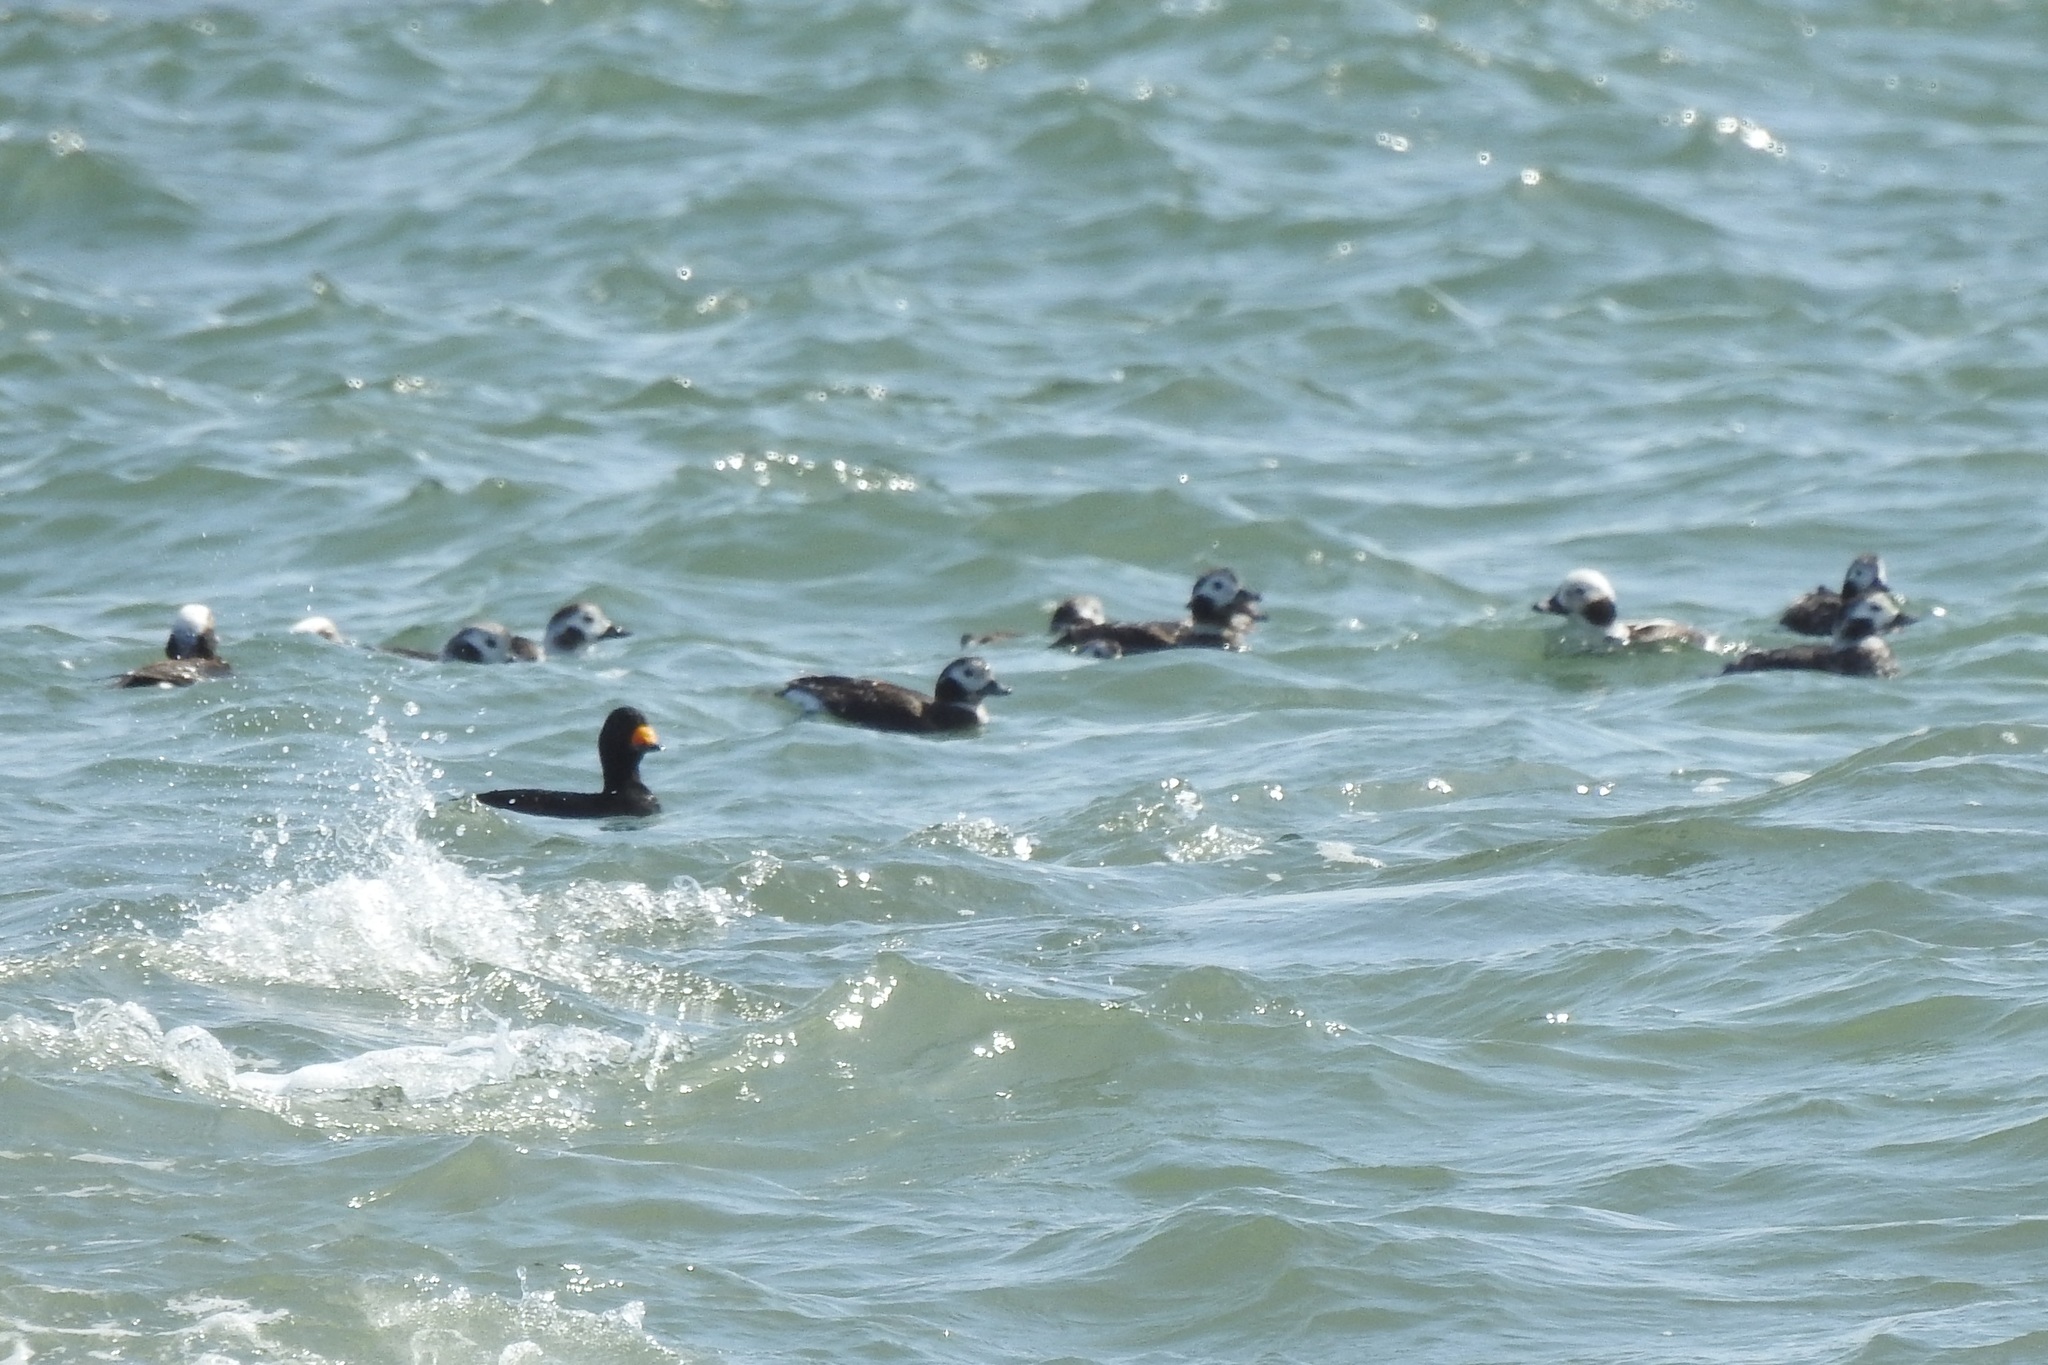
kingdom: Animalia
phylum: Chordata
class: Aves
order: Anseriformes
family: Anatidae
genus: Clangula
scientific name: Clangula hyemalis
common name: Long-tailed duck
